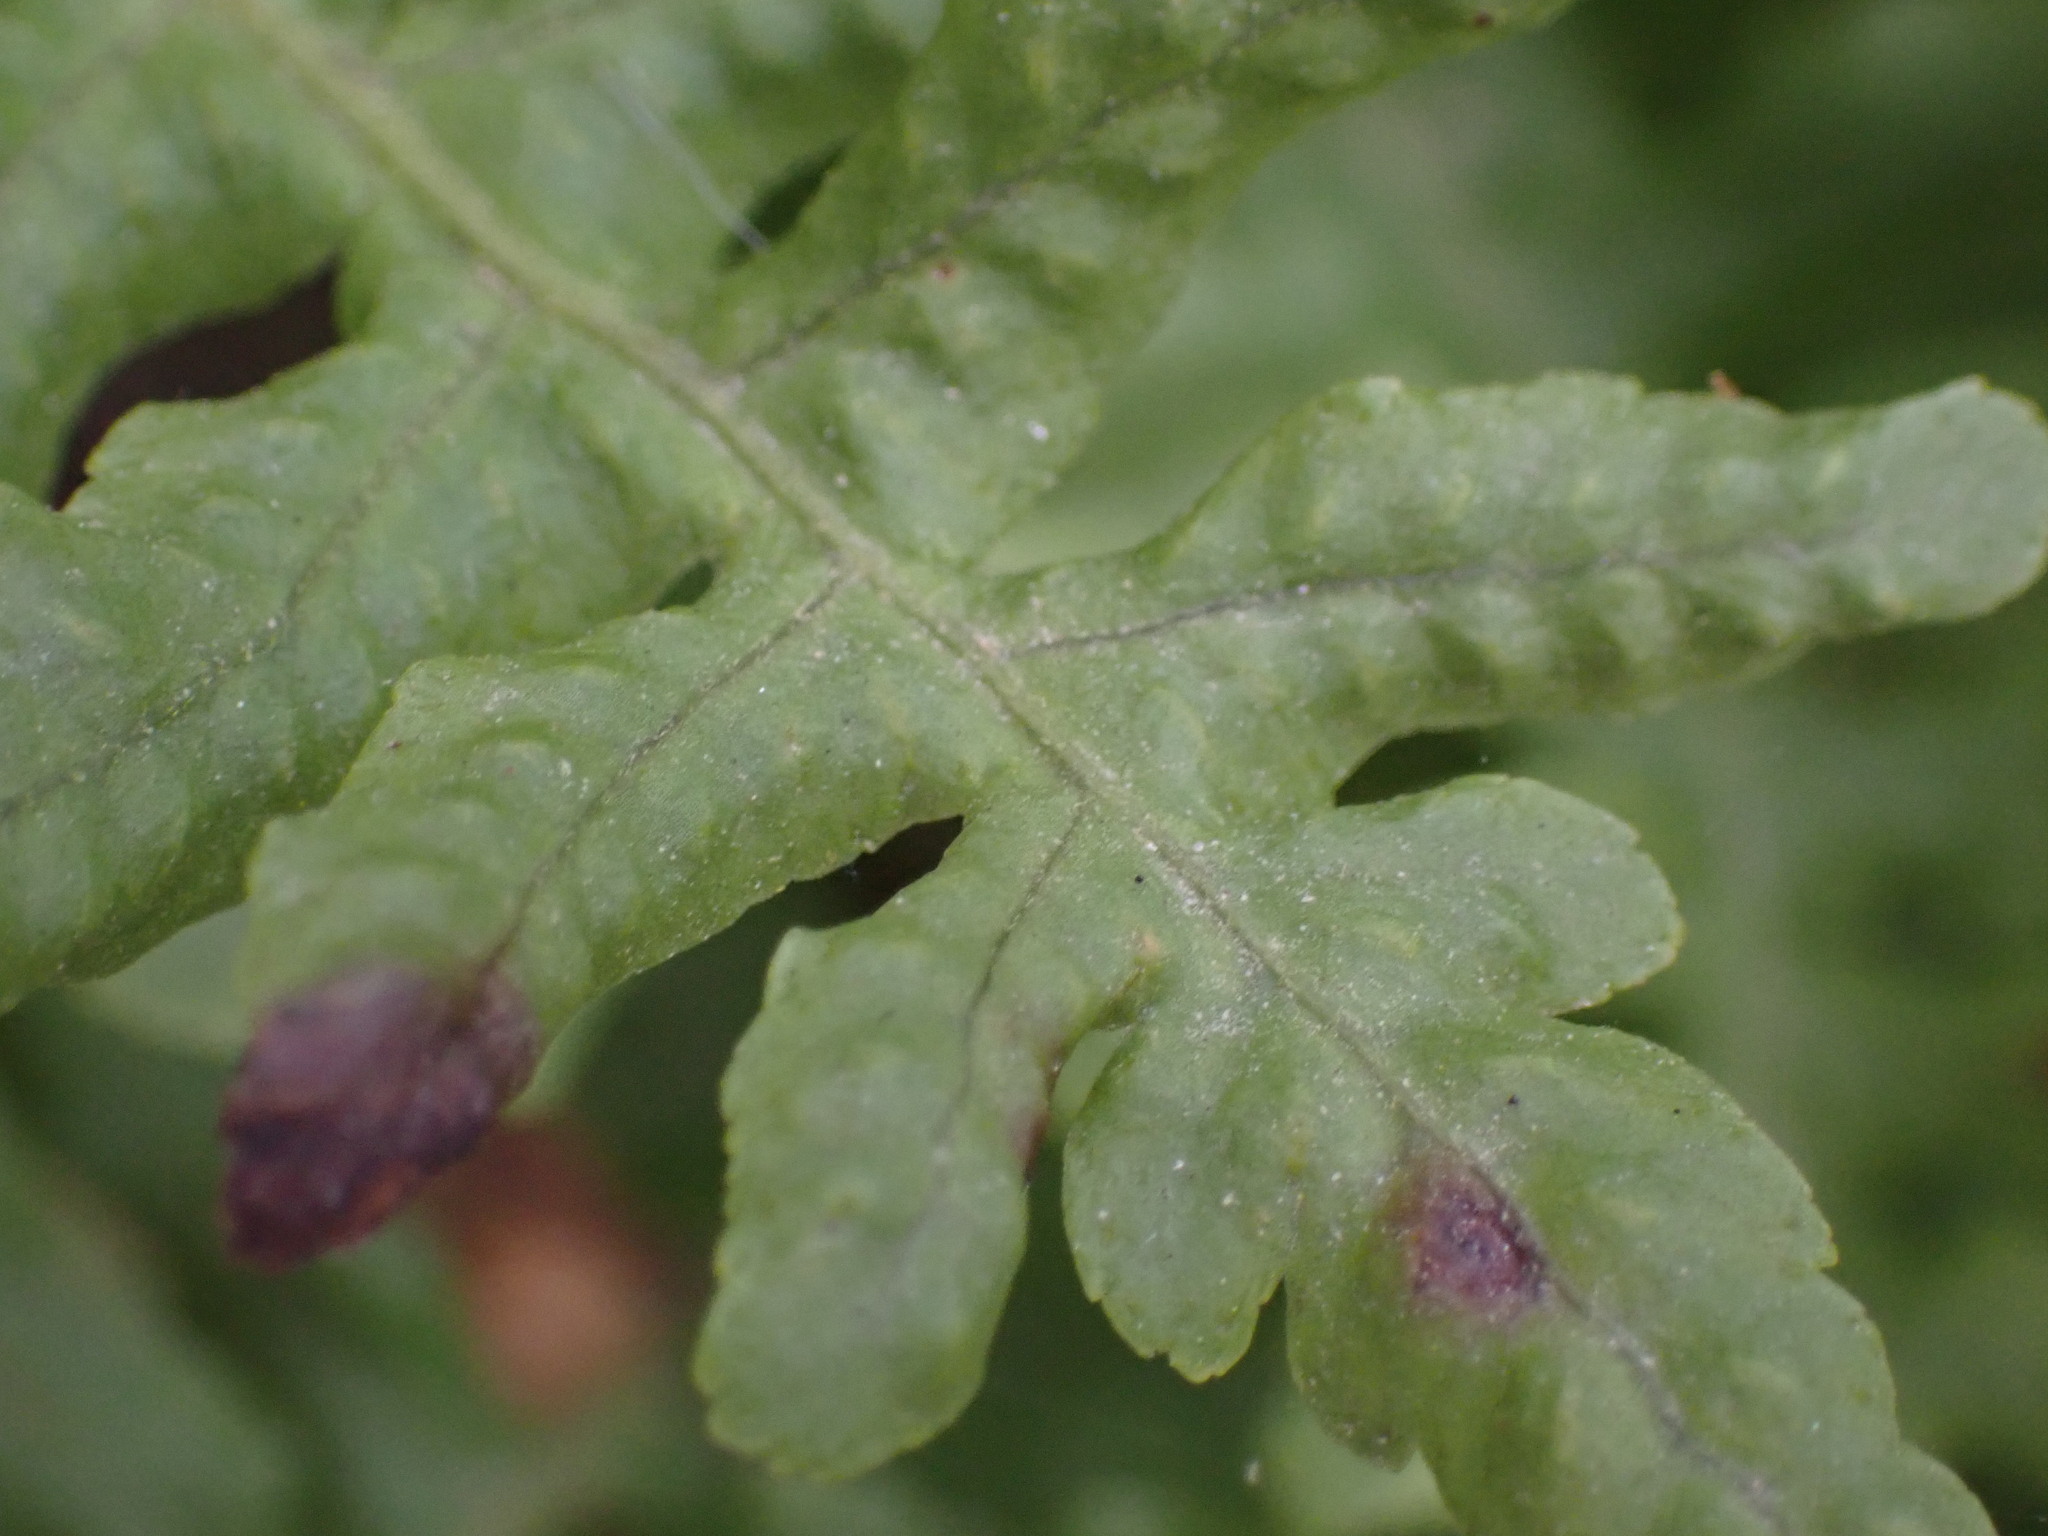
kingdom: Plantae
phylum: Tracheophyta
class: Polypodiopsida
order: Polypodiales
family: Polypodiaceae
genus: Polypodium
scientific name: Polypodium californicum
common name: California polypody
